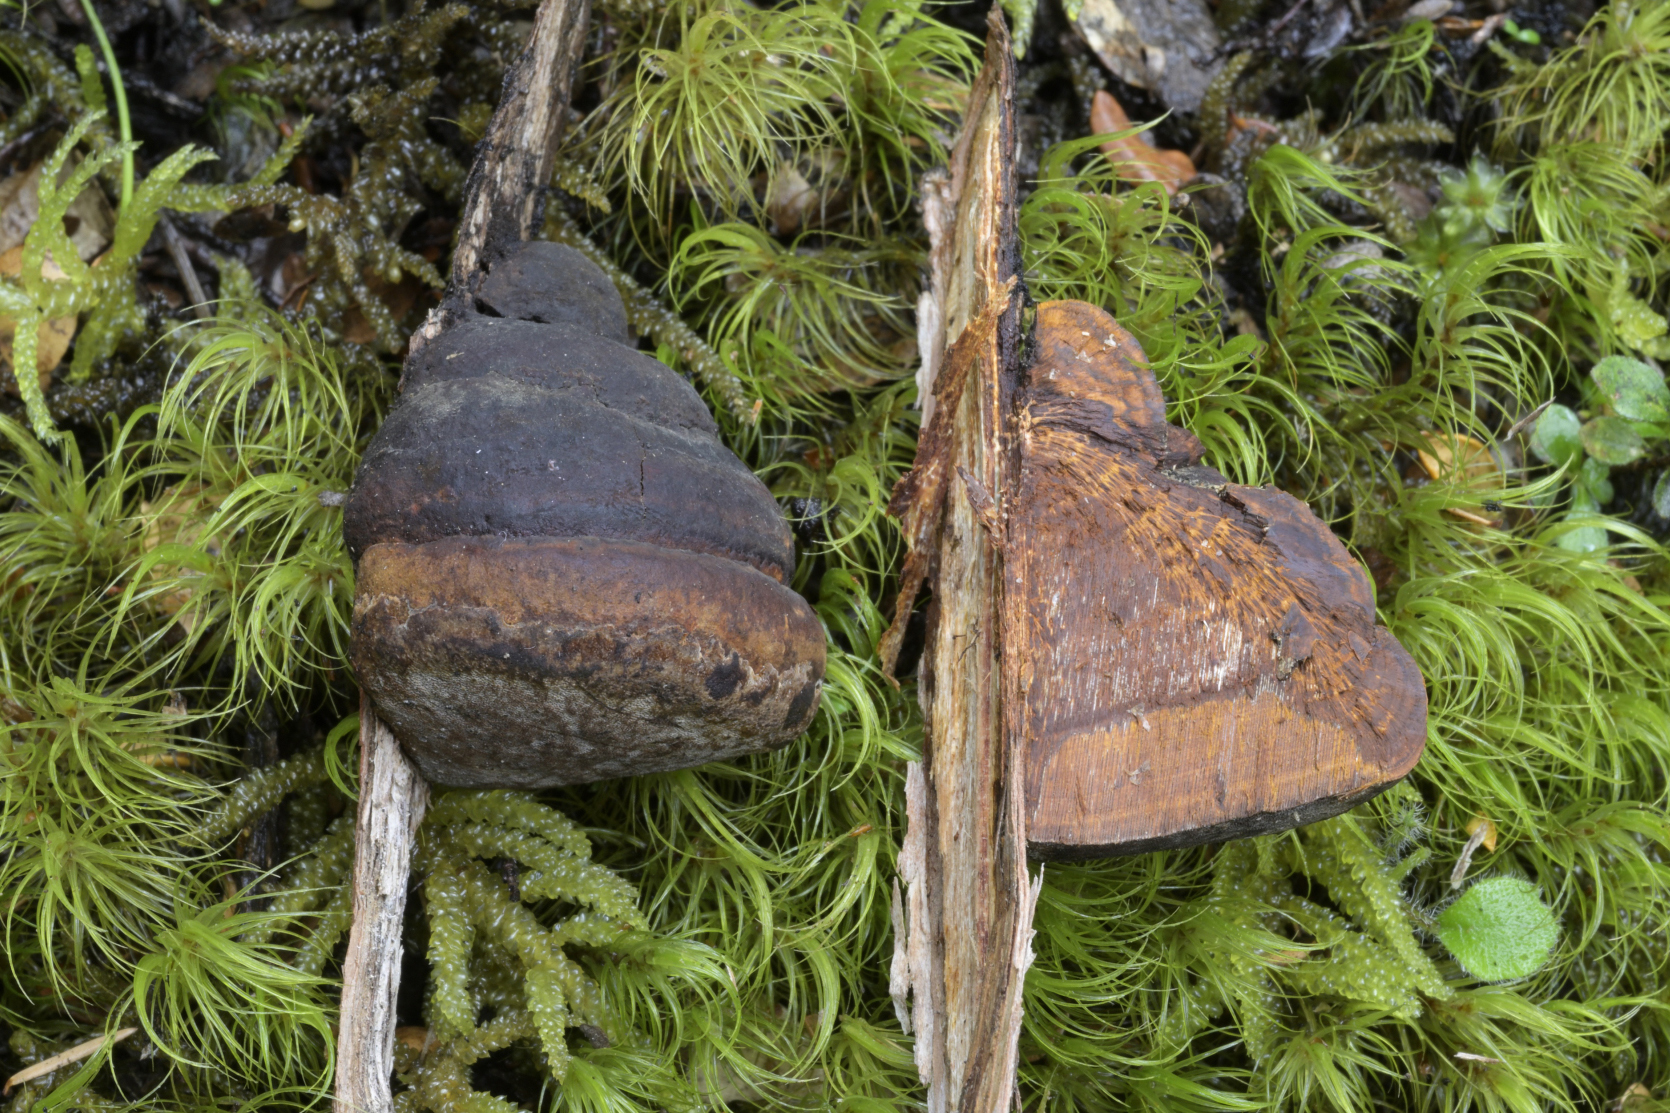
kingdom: Fungi
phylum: Basidiomycota
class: Agaricomycetes
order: Hymenochaetales
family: Hymenochaetaceae
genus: Fomitiporia
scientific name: Fomitiporia
